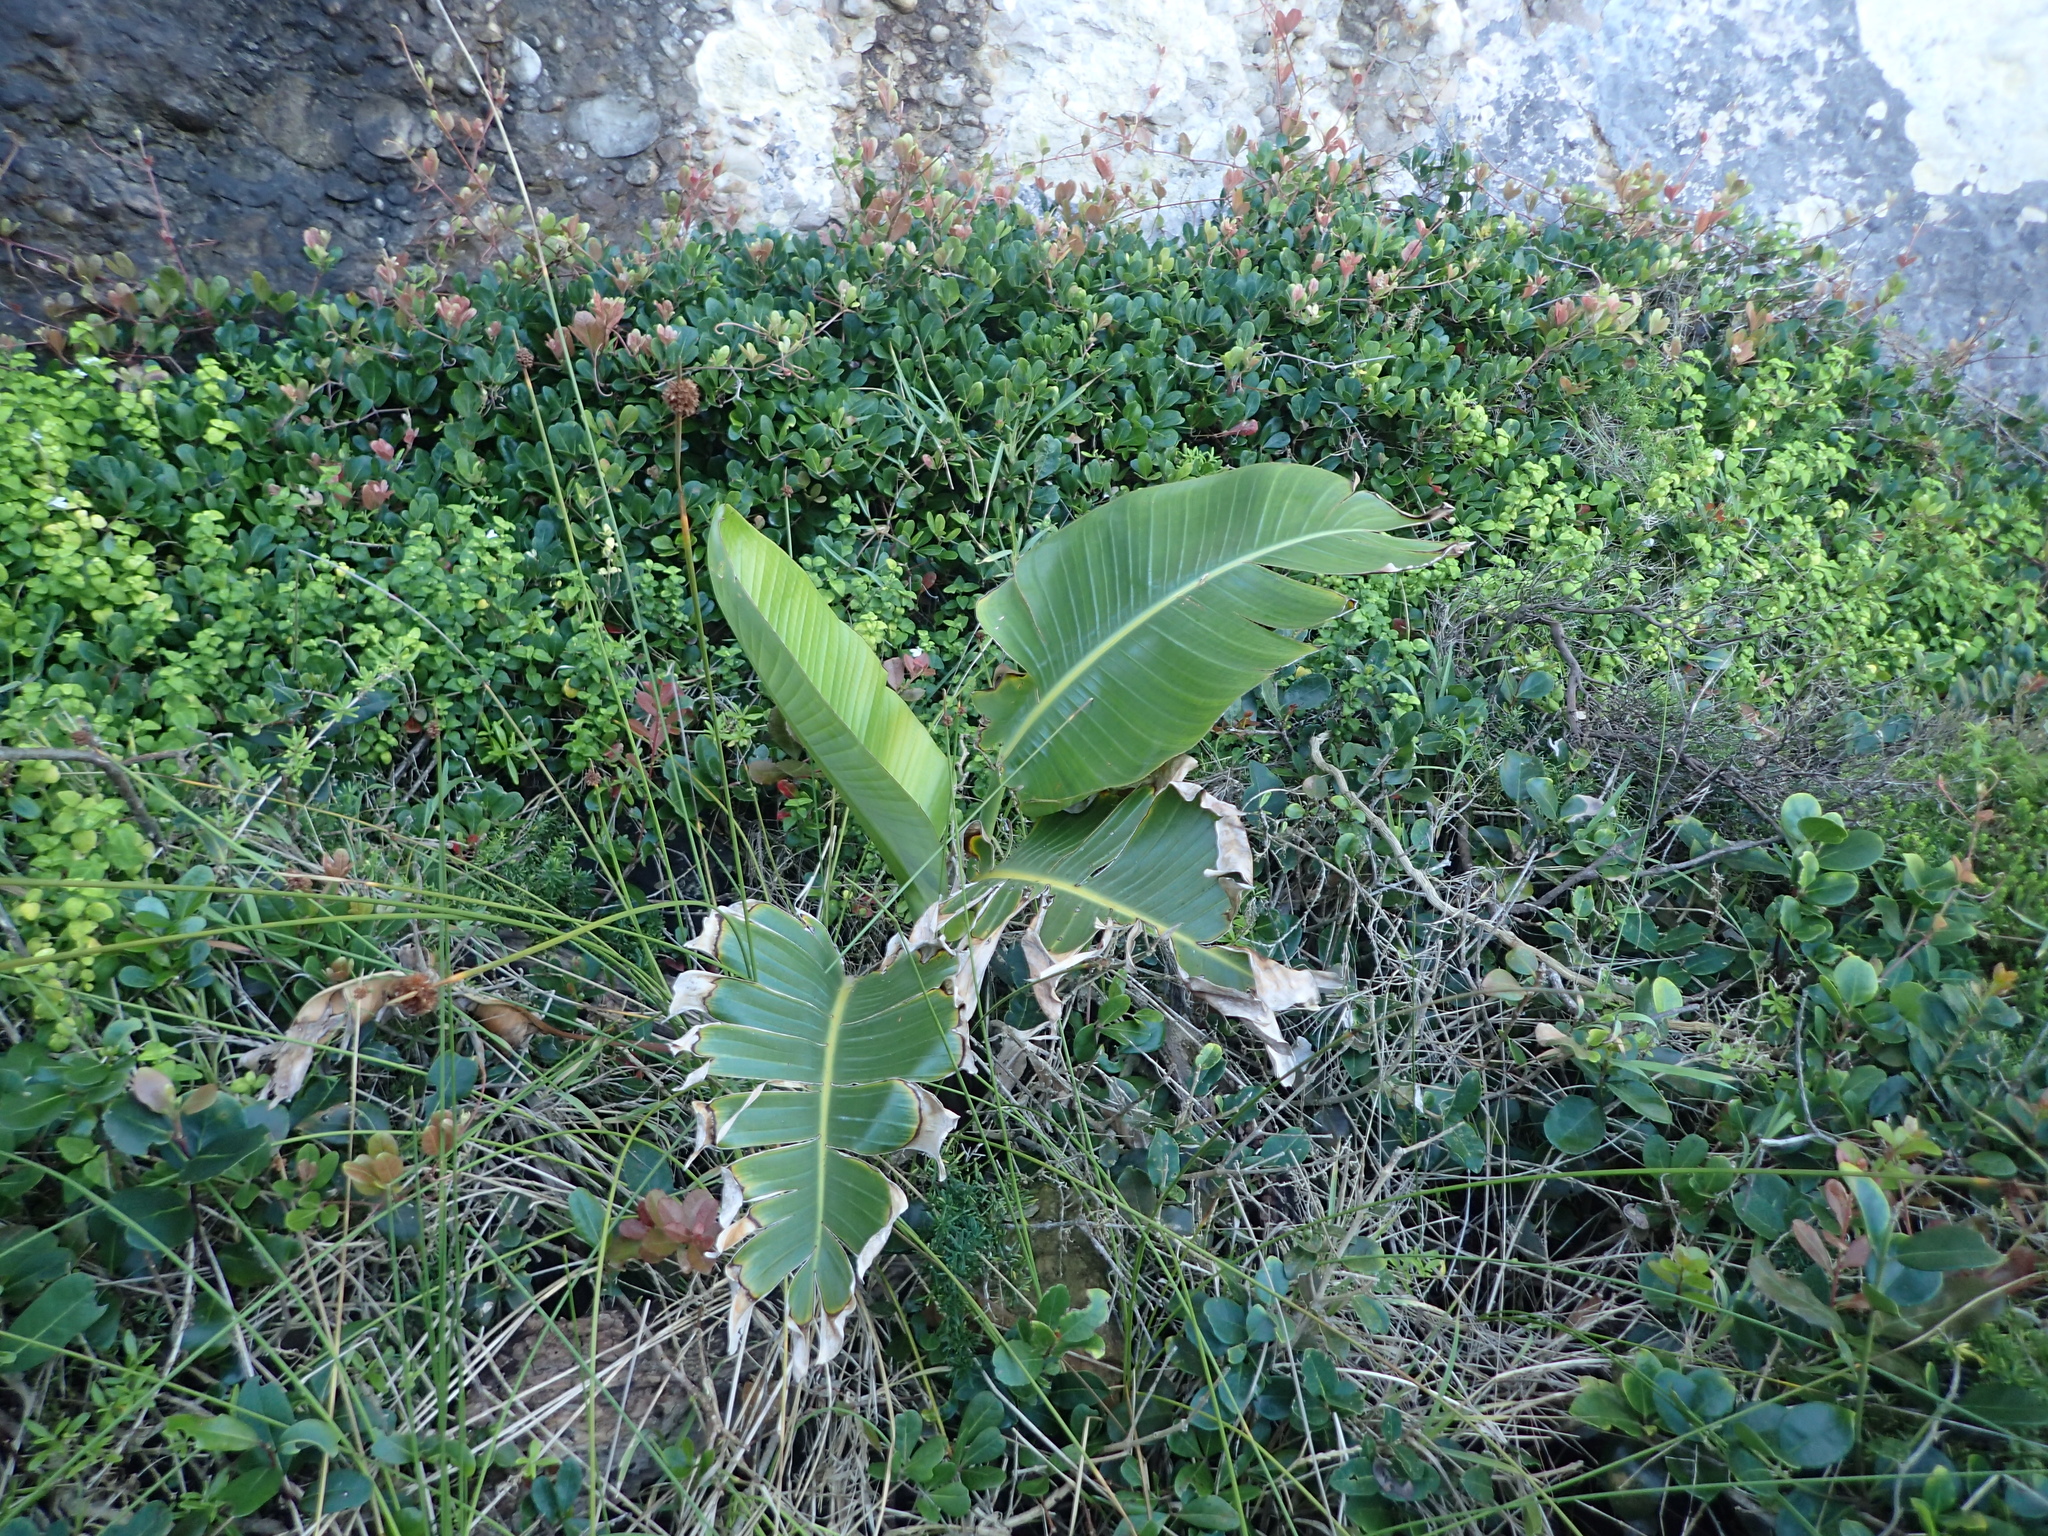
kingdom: Plantae
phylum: Tracheophyta
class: Liliopsida
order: Zingiberales
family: Strelitziaceae
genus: Strelitzia
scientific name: Strelitzia nicolai
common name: Bird-of-paradise tree
